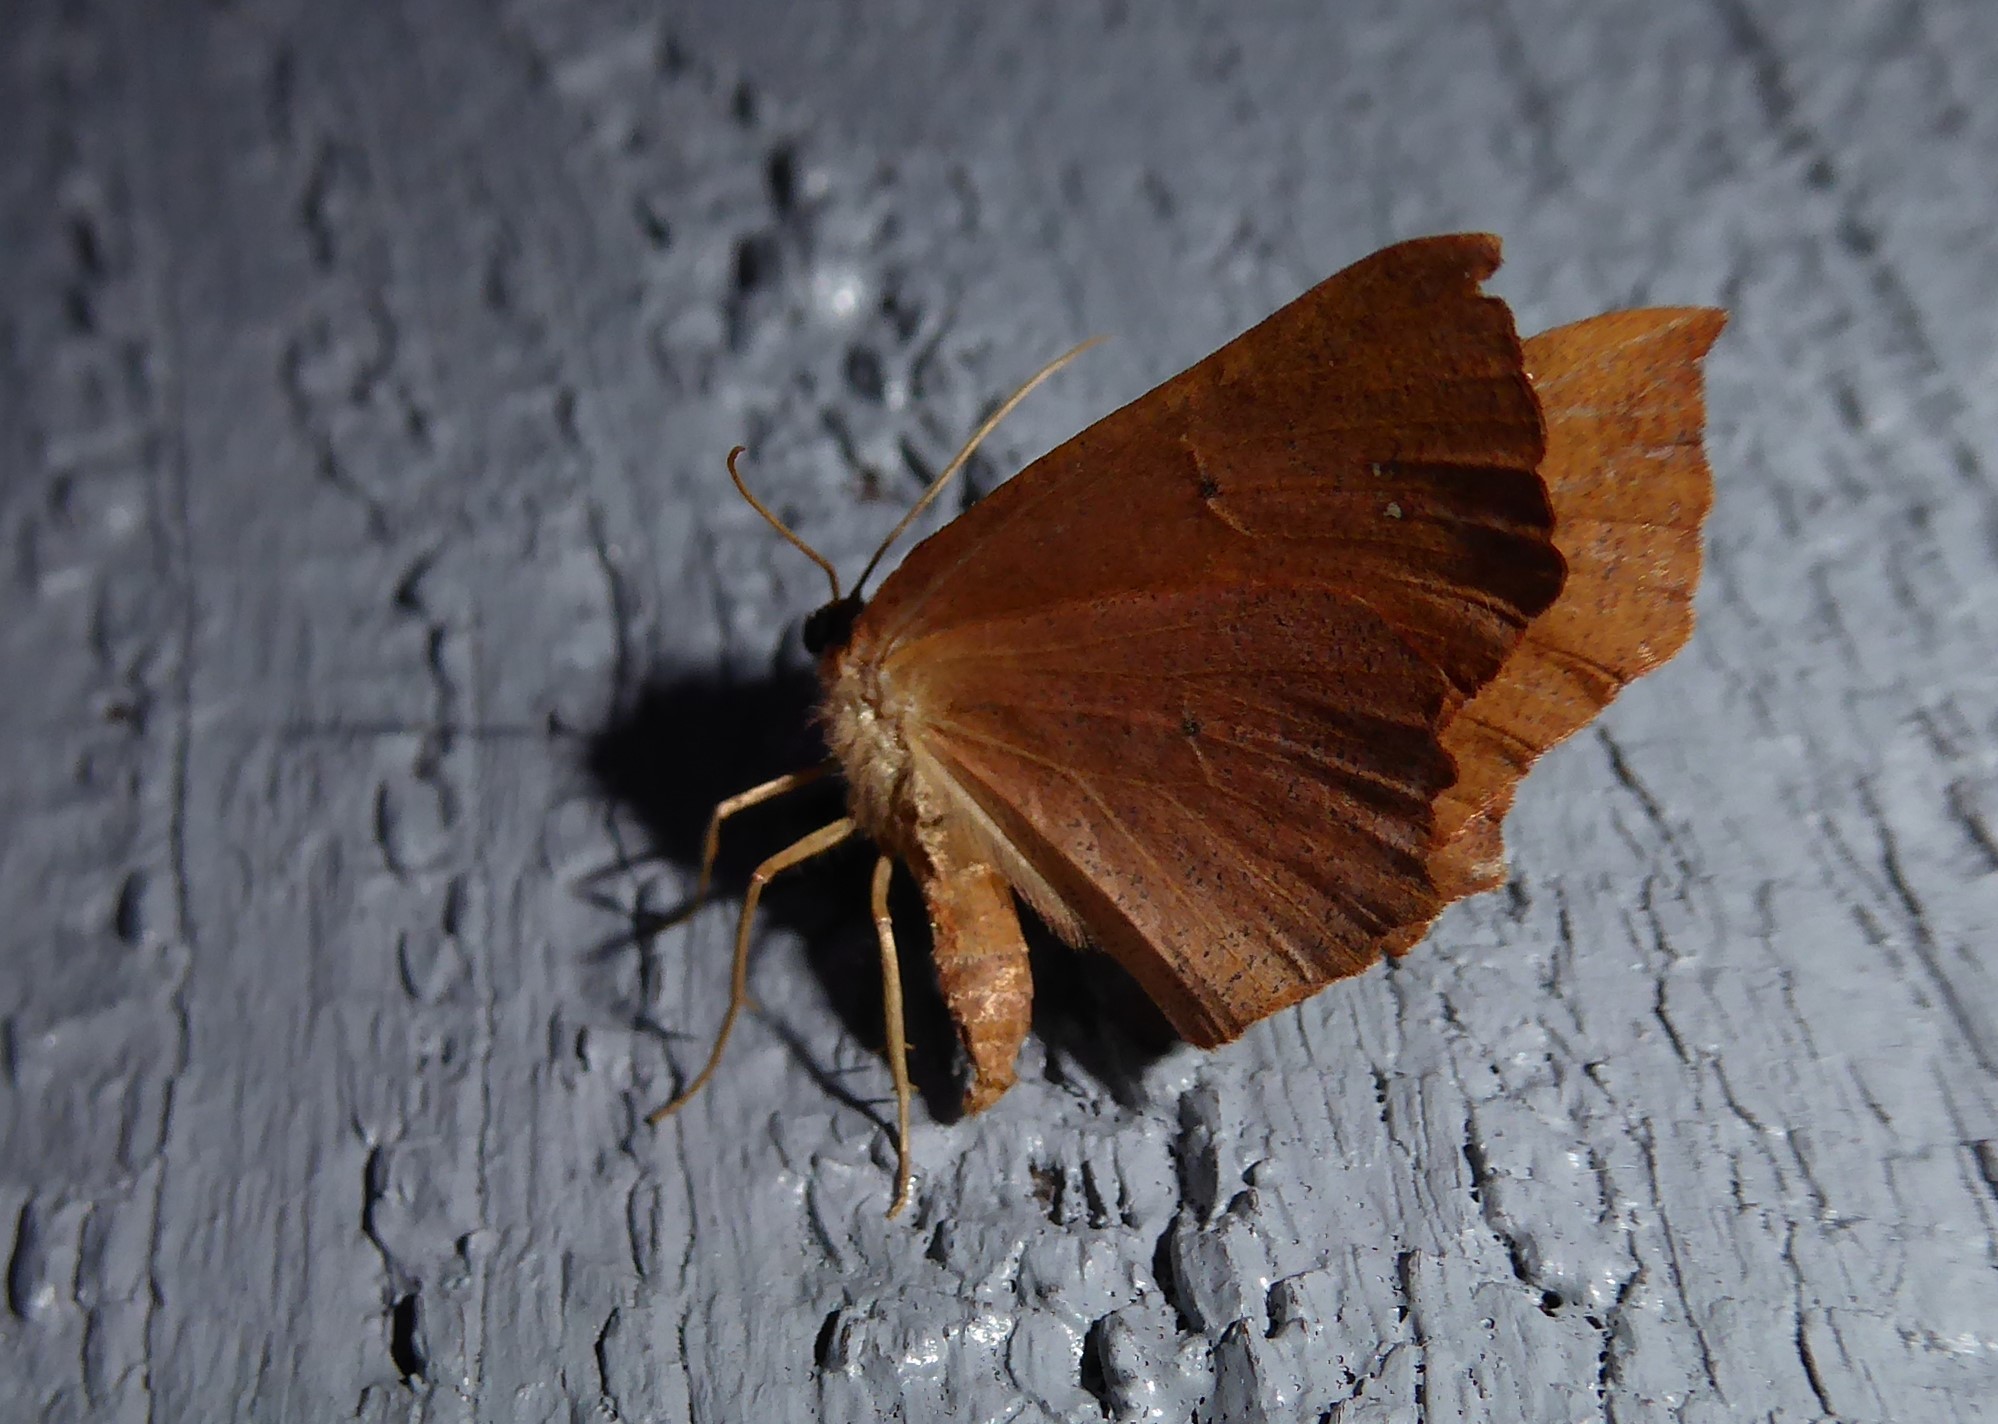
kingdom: Animalia
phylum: Arthropoda
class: Insecta
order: Lepidoptera
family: Geometridae
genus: Xyridacma
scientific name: Xyridacma ustaria
